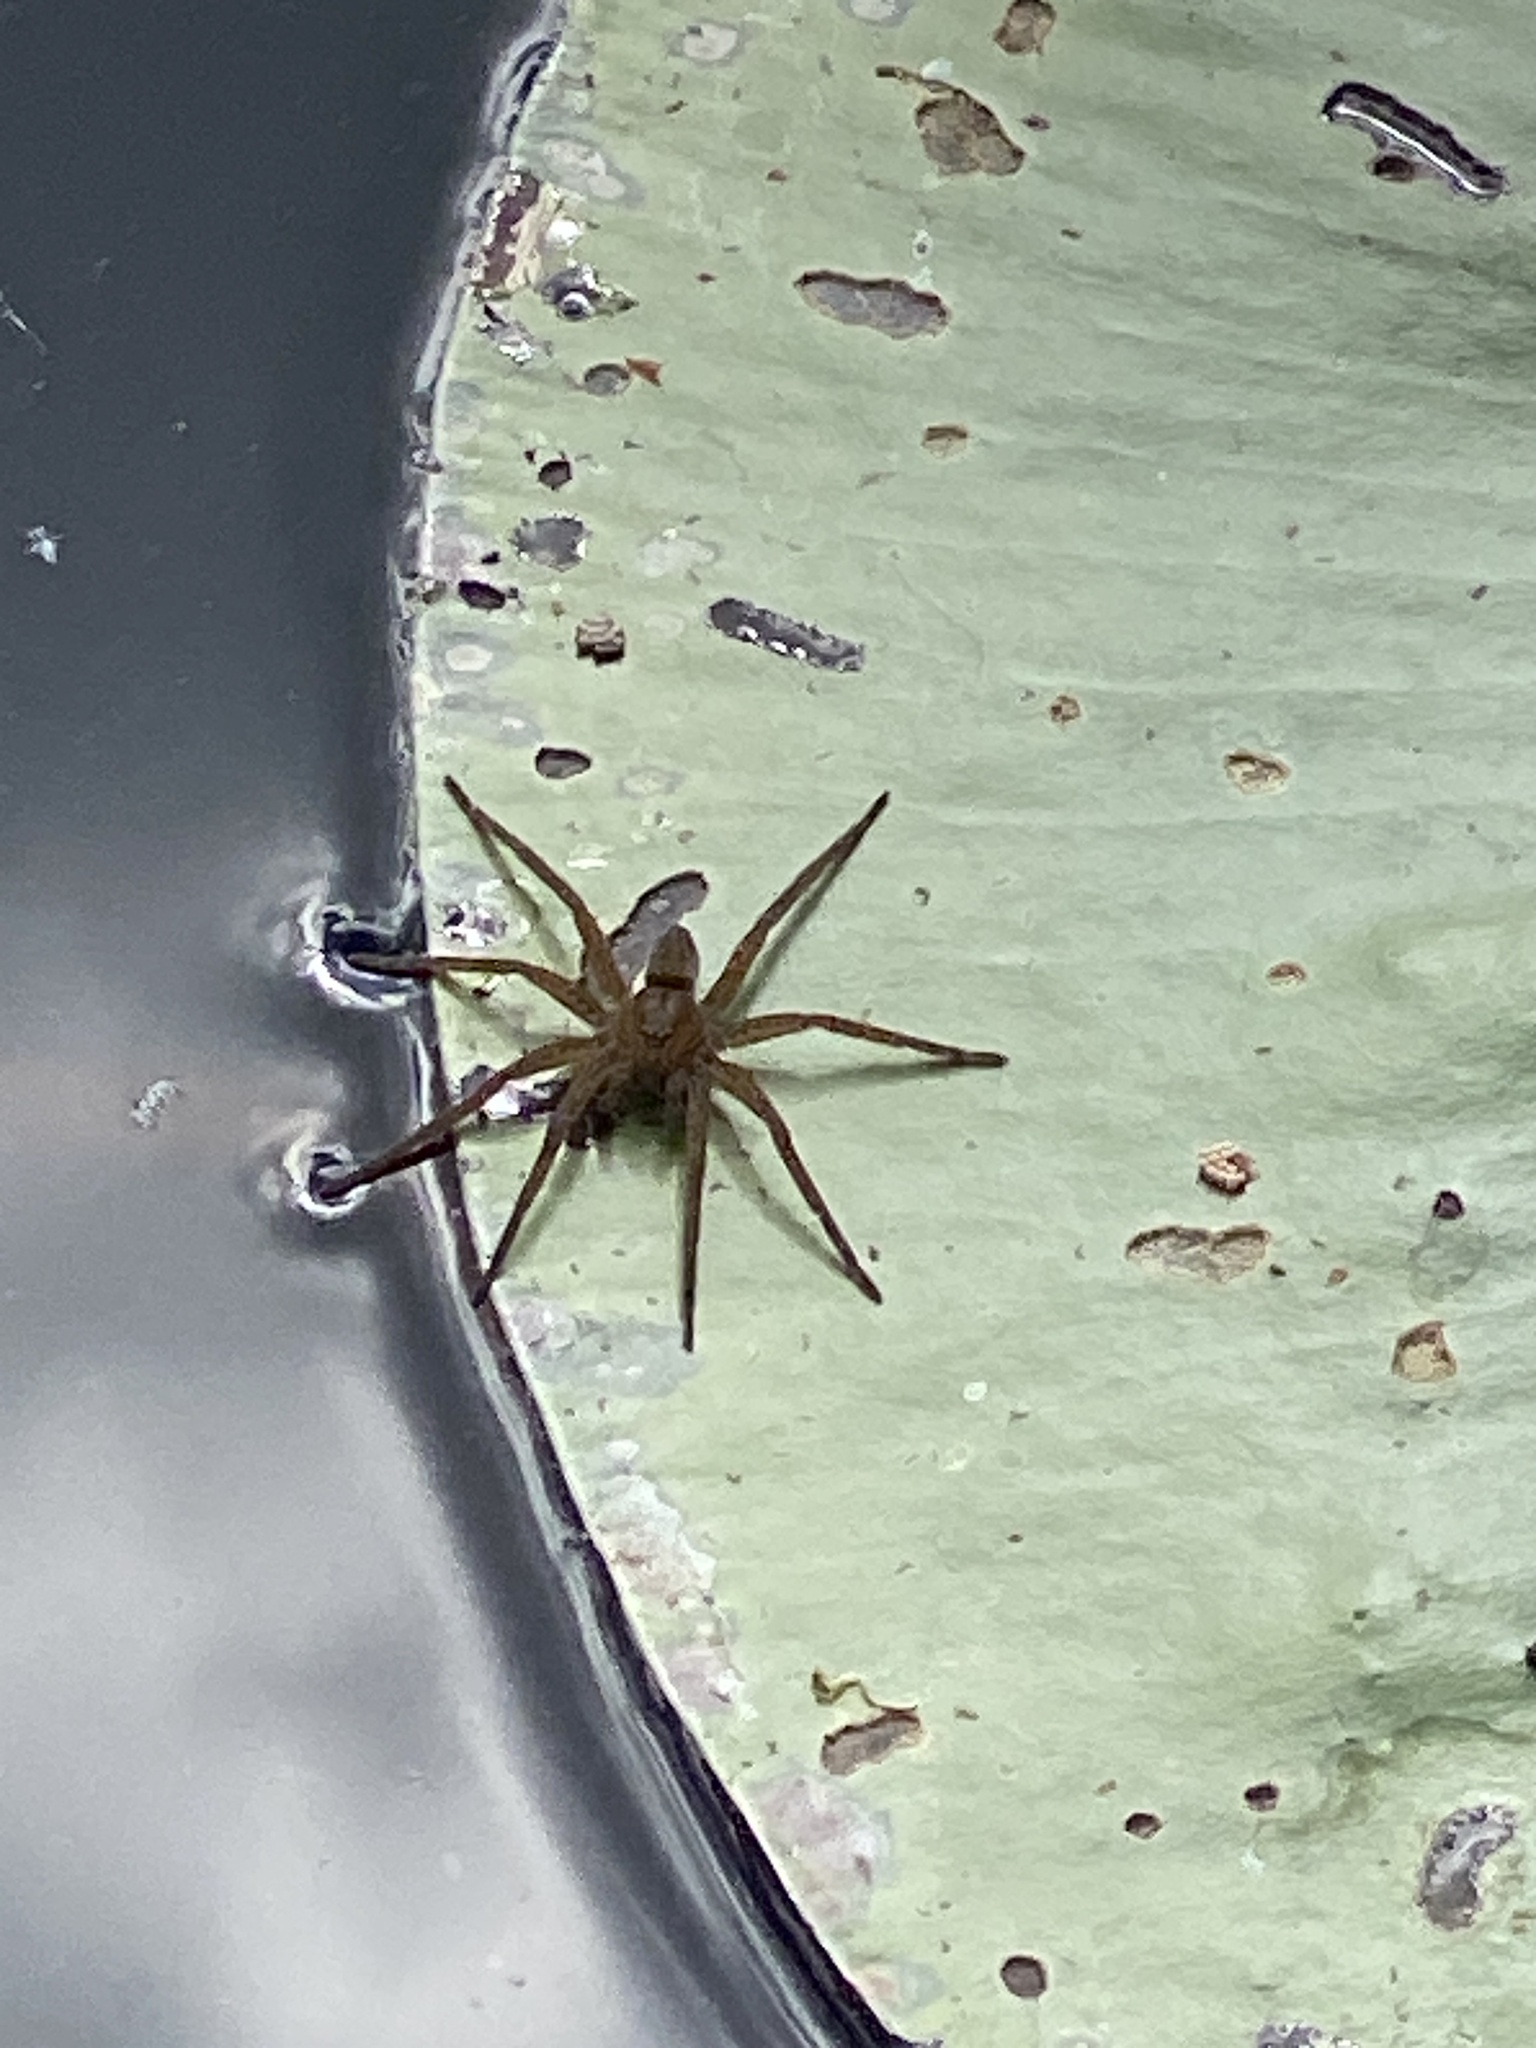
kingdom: Animalia
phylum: Arthropoda
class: Arachnida
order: Araneae
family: Pisauridae
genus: Dolomedes
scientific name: Dolomedes
